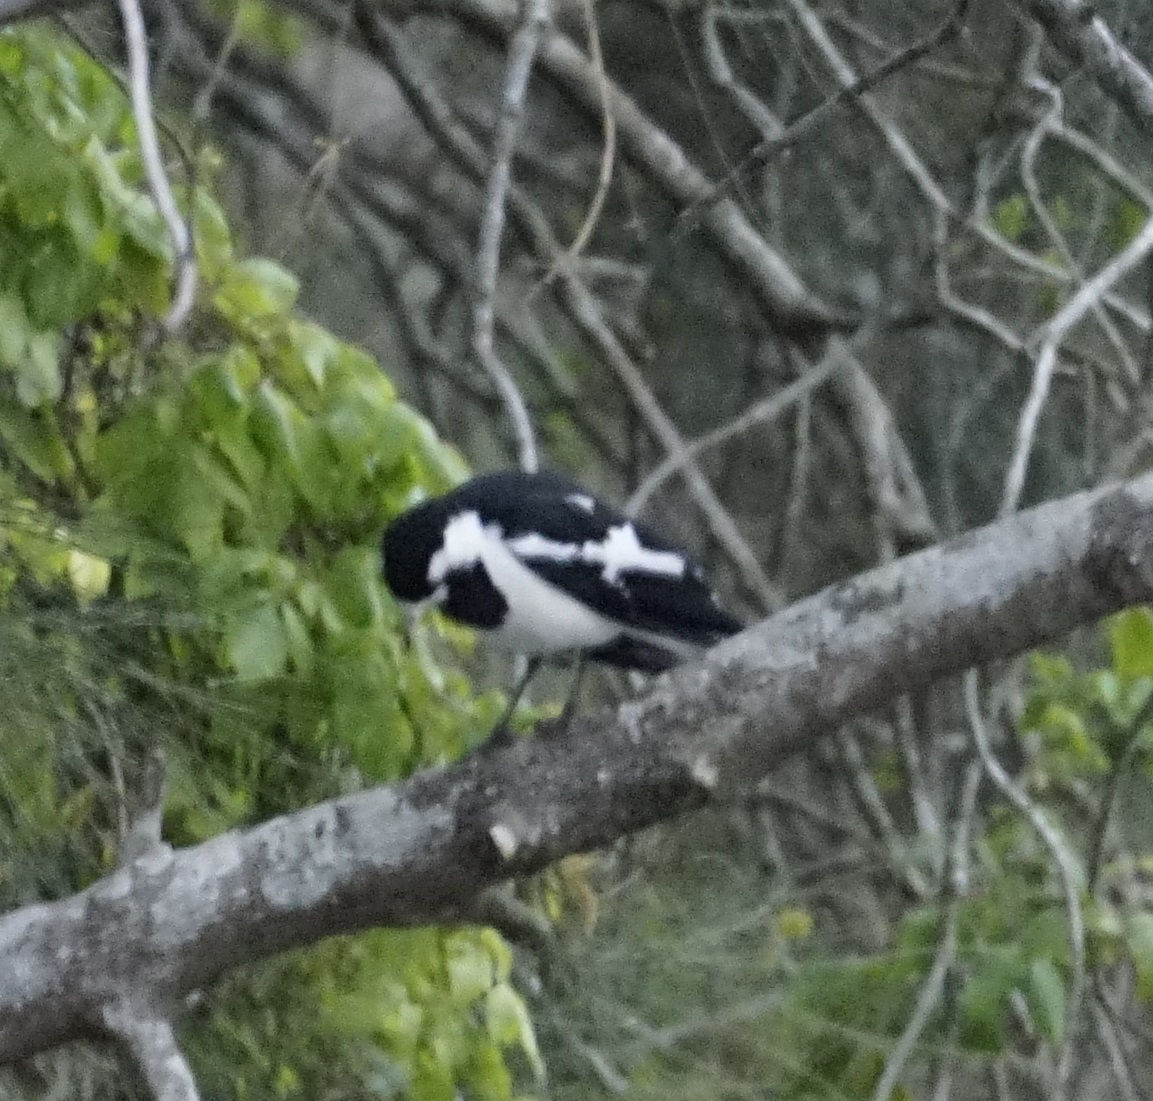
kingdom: Animalia
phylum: Chordata
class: Aves
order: Passeriformes
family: Monarchidae
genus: Grallina
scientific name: Grallina cyanoleuca
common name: Magpie-lark
